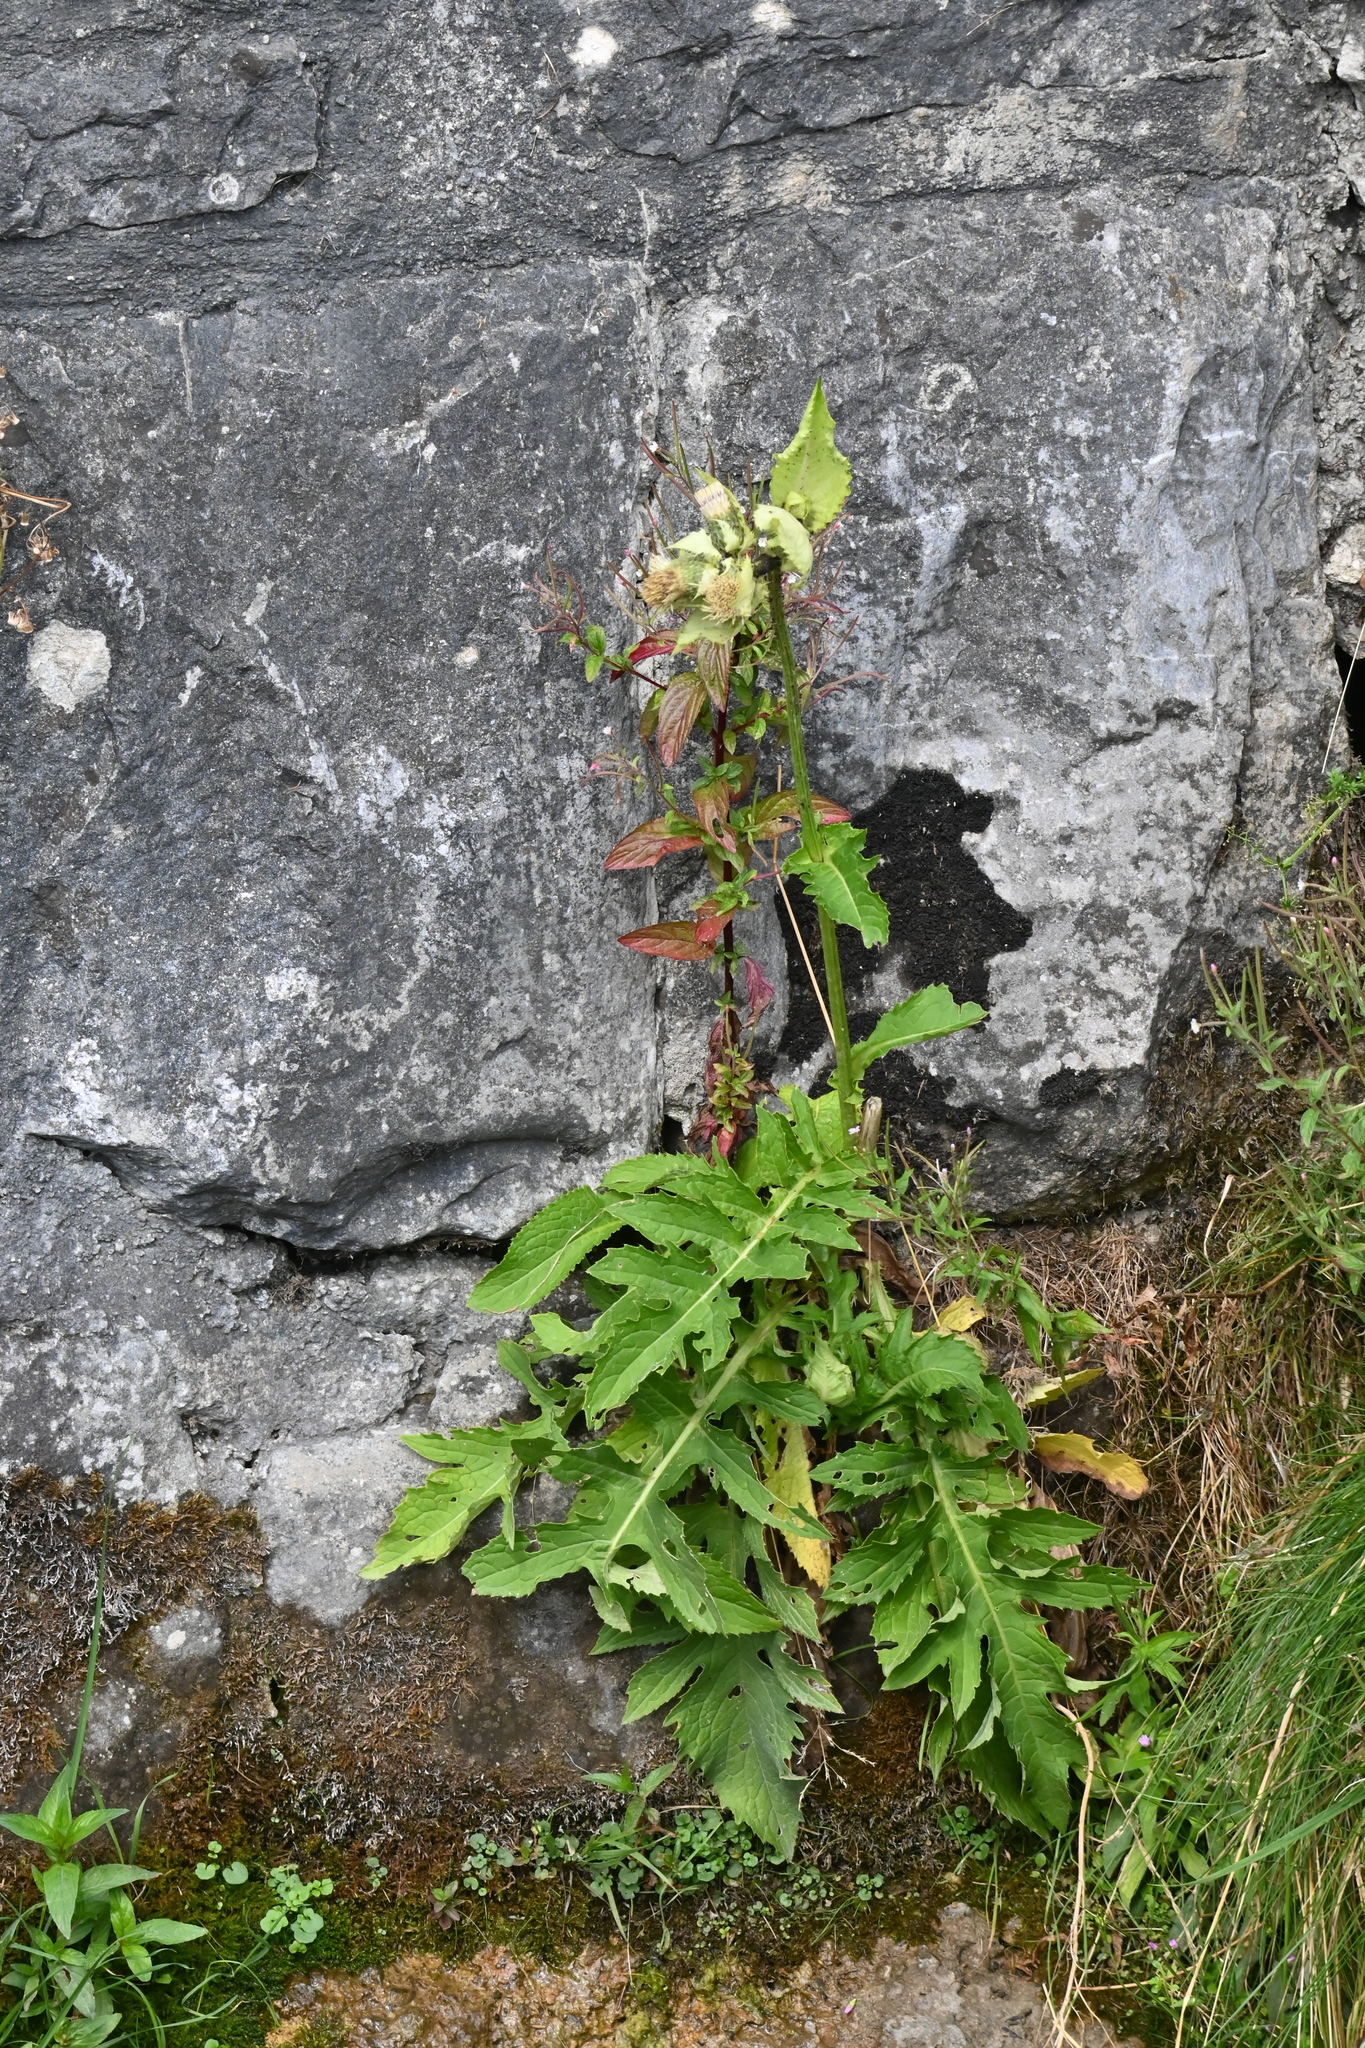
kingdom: Plantae
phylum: Tracheophyta
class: Magnoliopsida
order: Asterales
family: Asteraceae
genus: Cirsium
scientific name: Cirsium oleraceum
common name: Cabbage thistle
